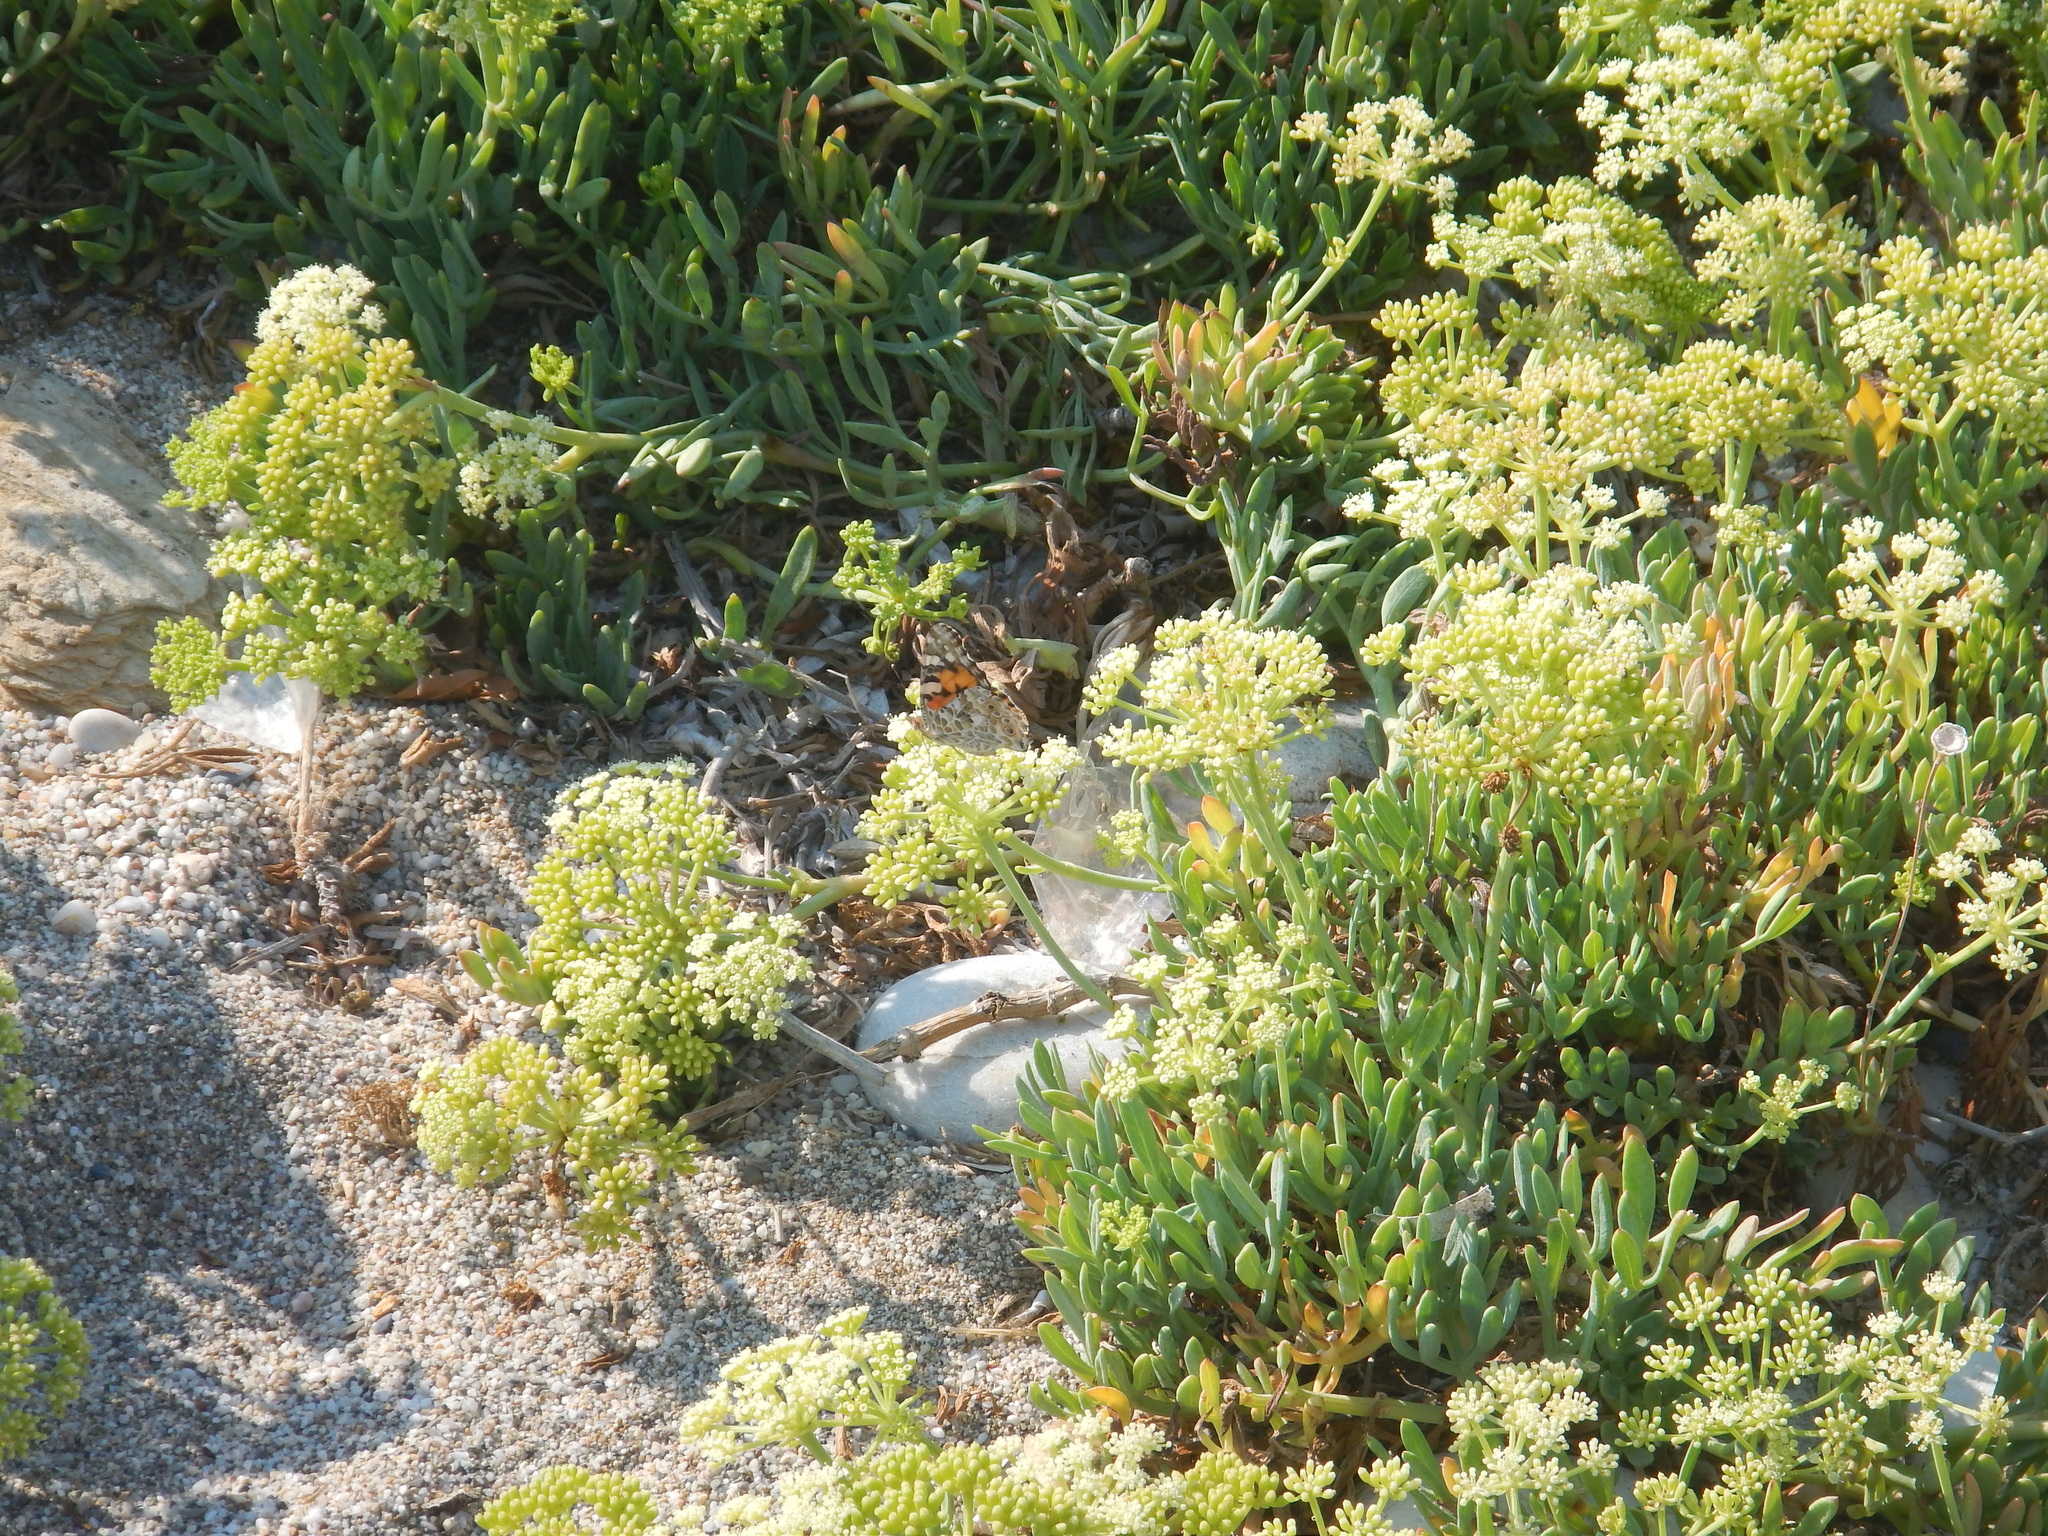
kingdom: Plantae
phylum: Tracheophyta
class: Magnoliopsida
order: Apiales
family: Apiaceae
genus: Crithmum
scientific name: Crithmum maritimum
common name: Rock samphire
